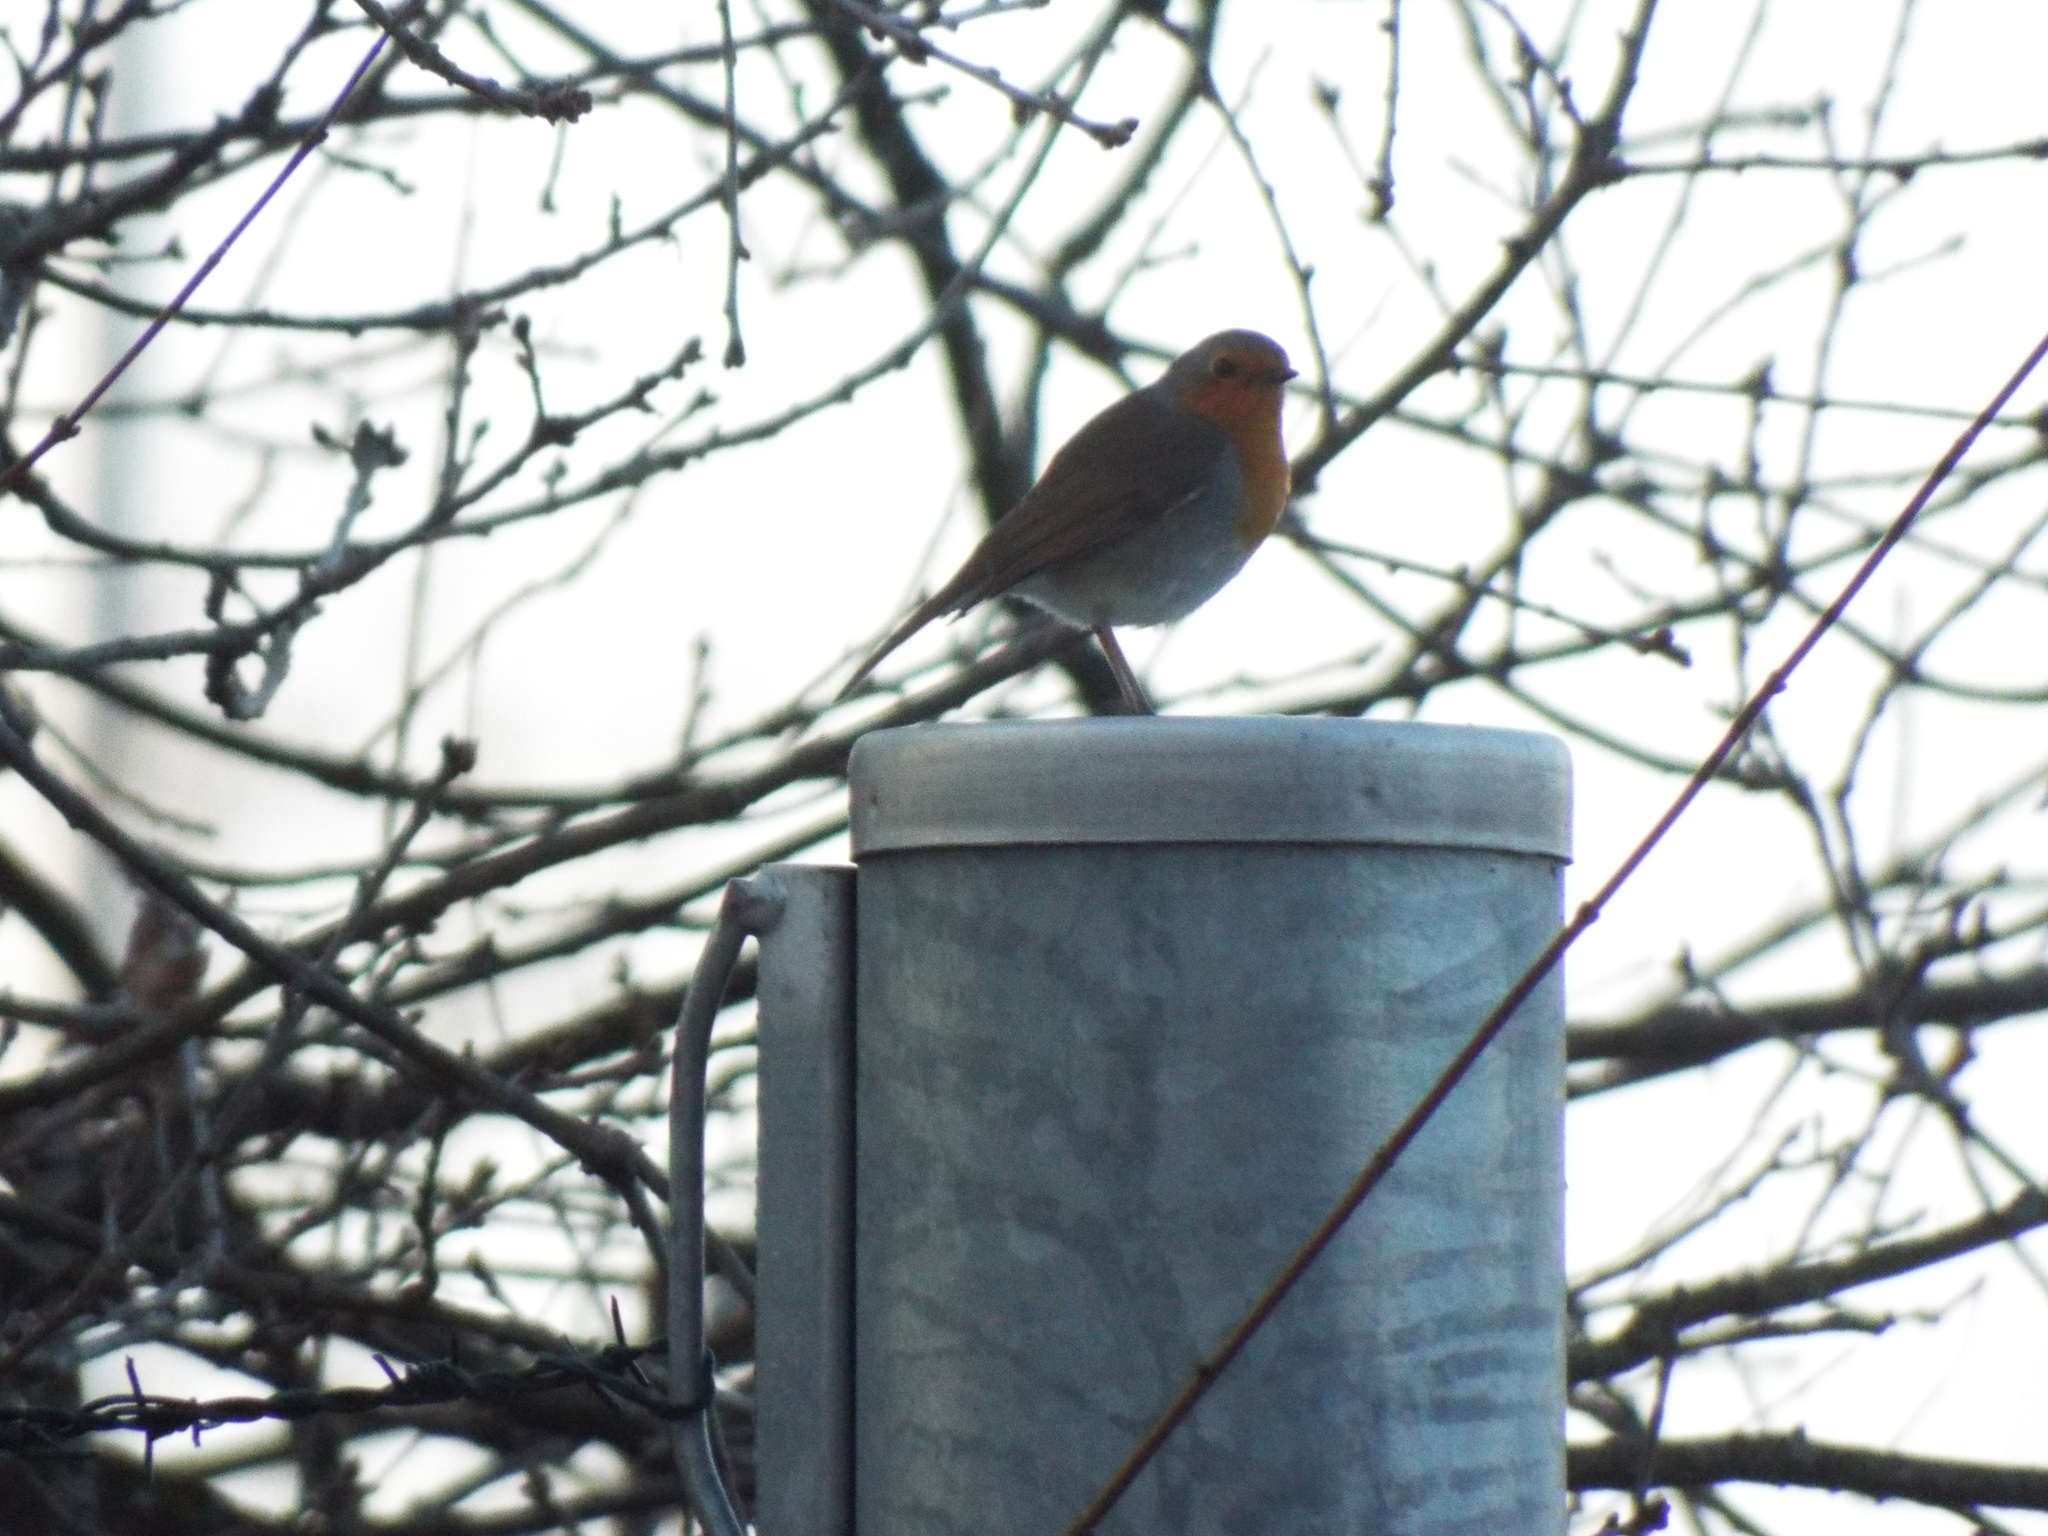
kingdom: Animalia
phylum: Chordata
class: Aves
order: Passeriformes
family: Muscicapidae
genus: Erithacus
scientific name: Erithacus rubecula
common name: European robin
